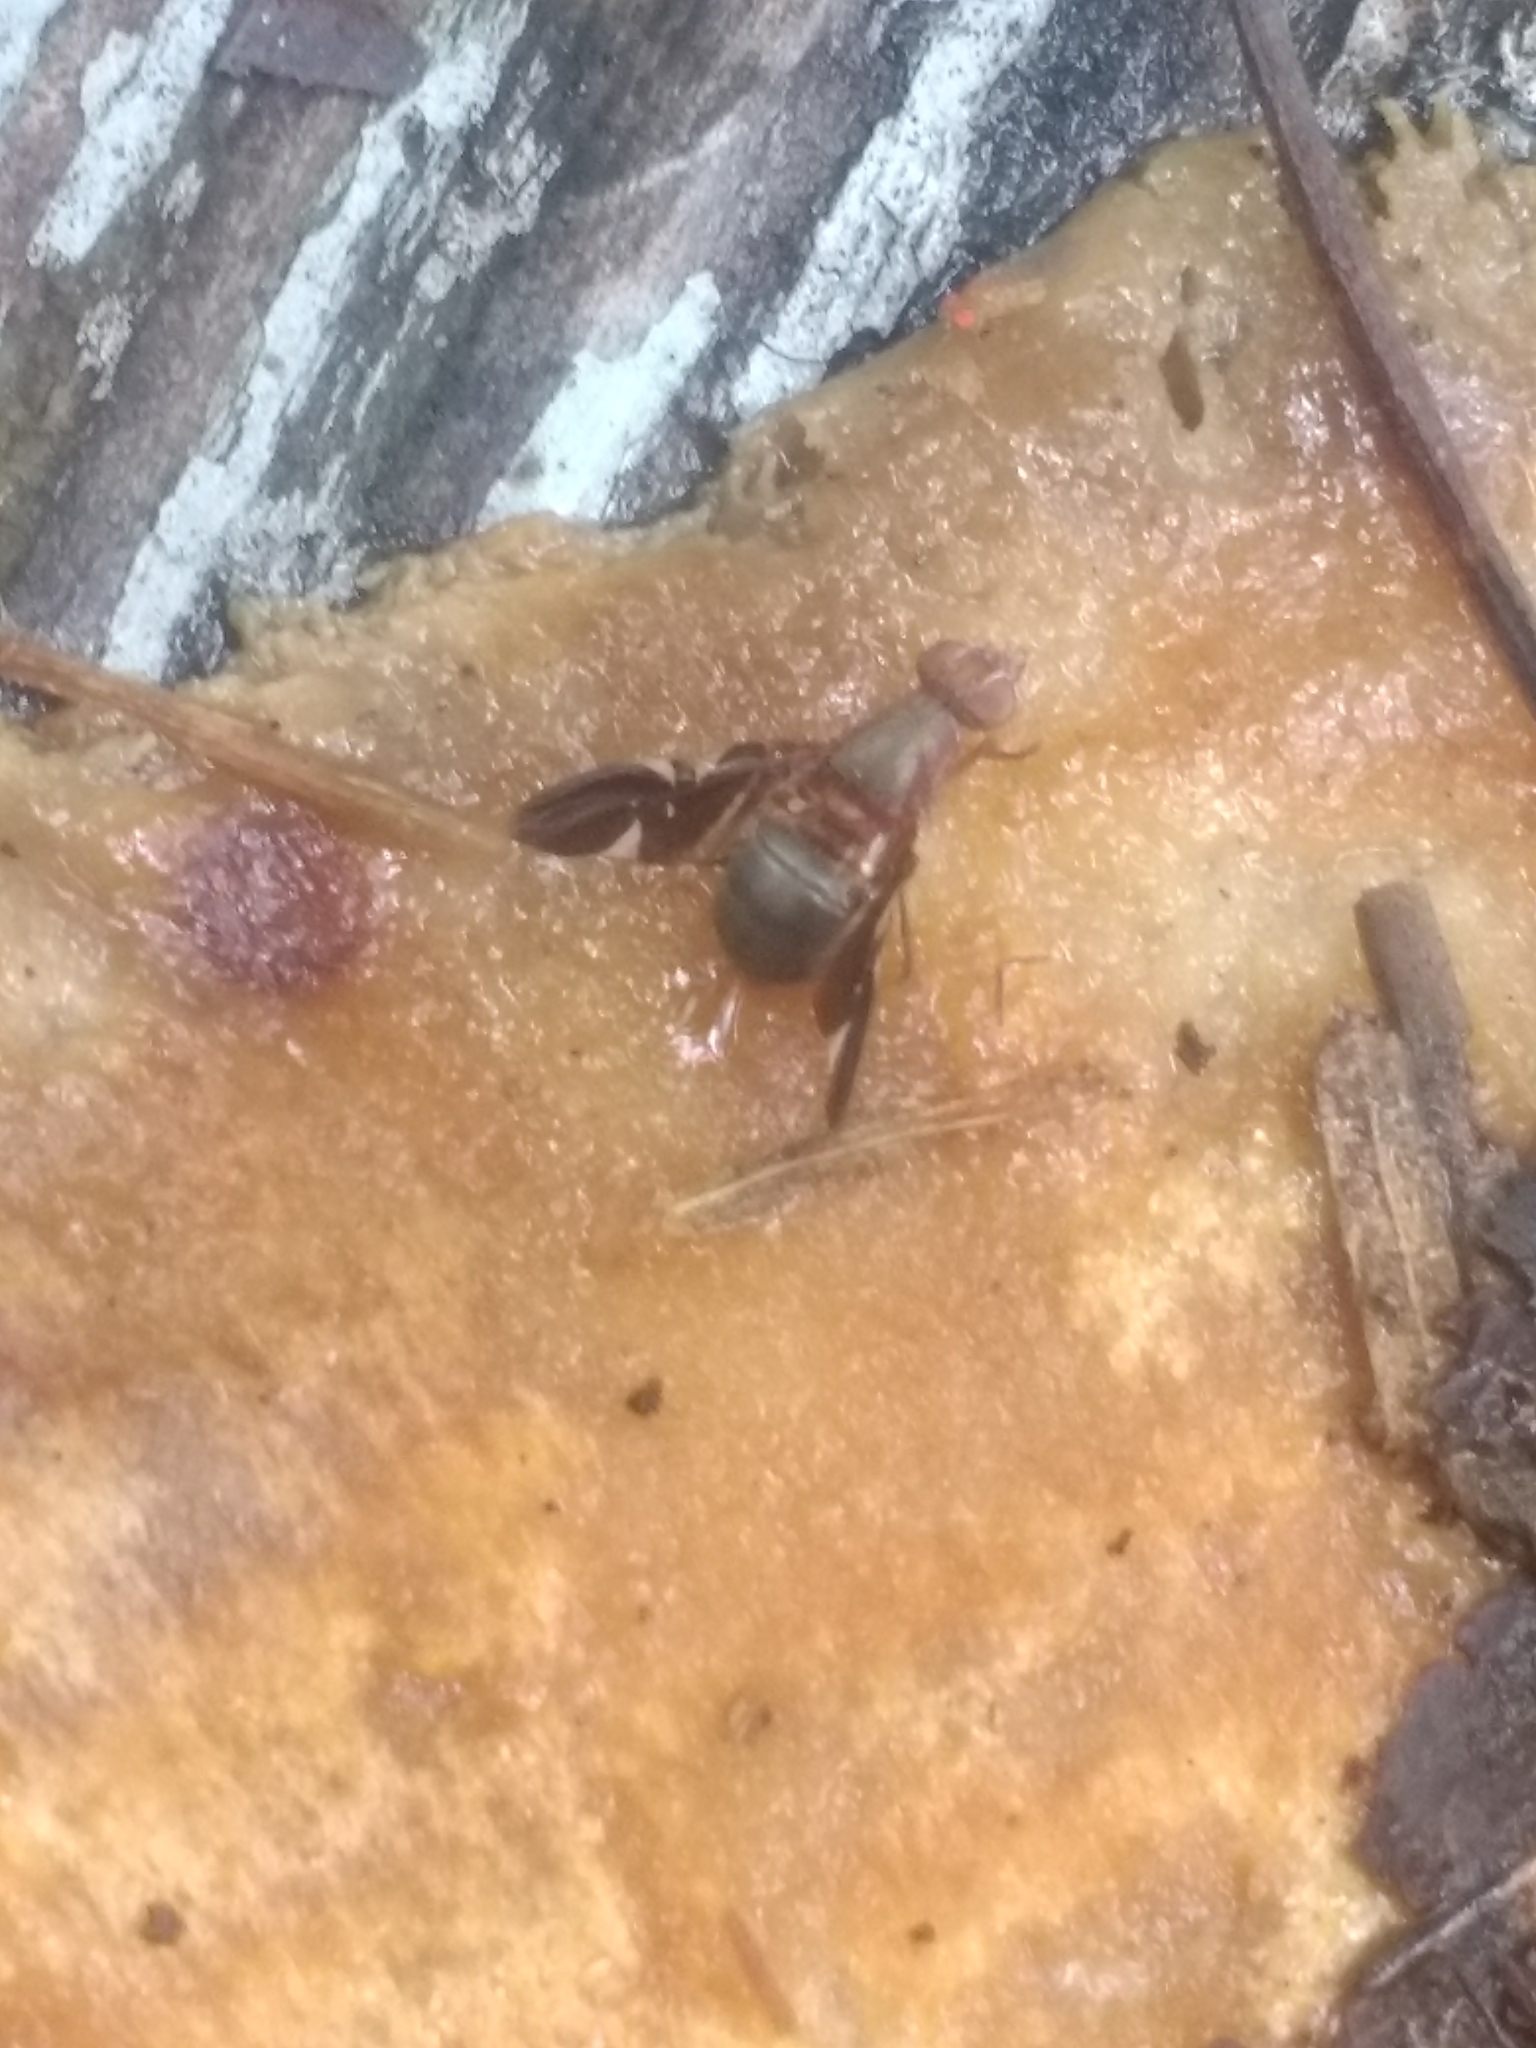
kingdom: Animalia
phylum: Arthropoda
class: Insecta
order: Diptera
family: Ulidiidae
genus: Delphinia
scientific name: Delphinia picta
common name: Common picture-winged fly
